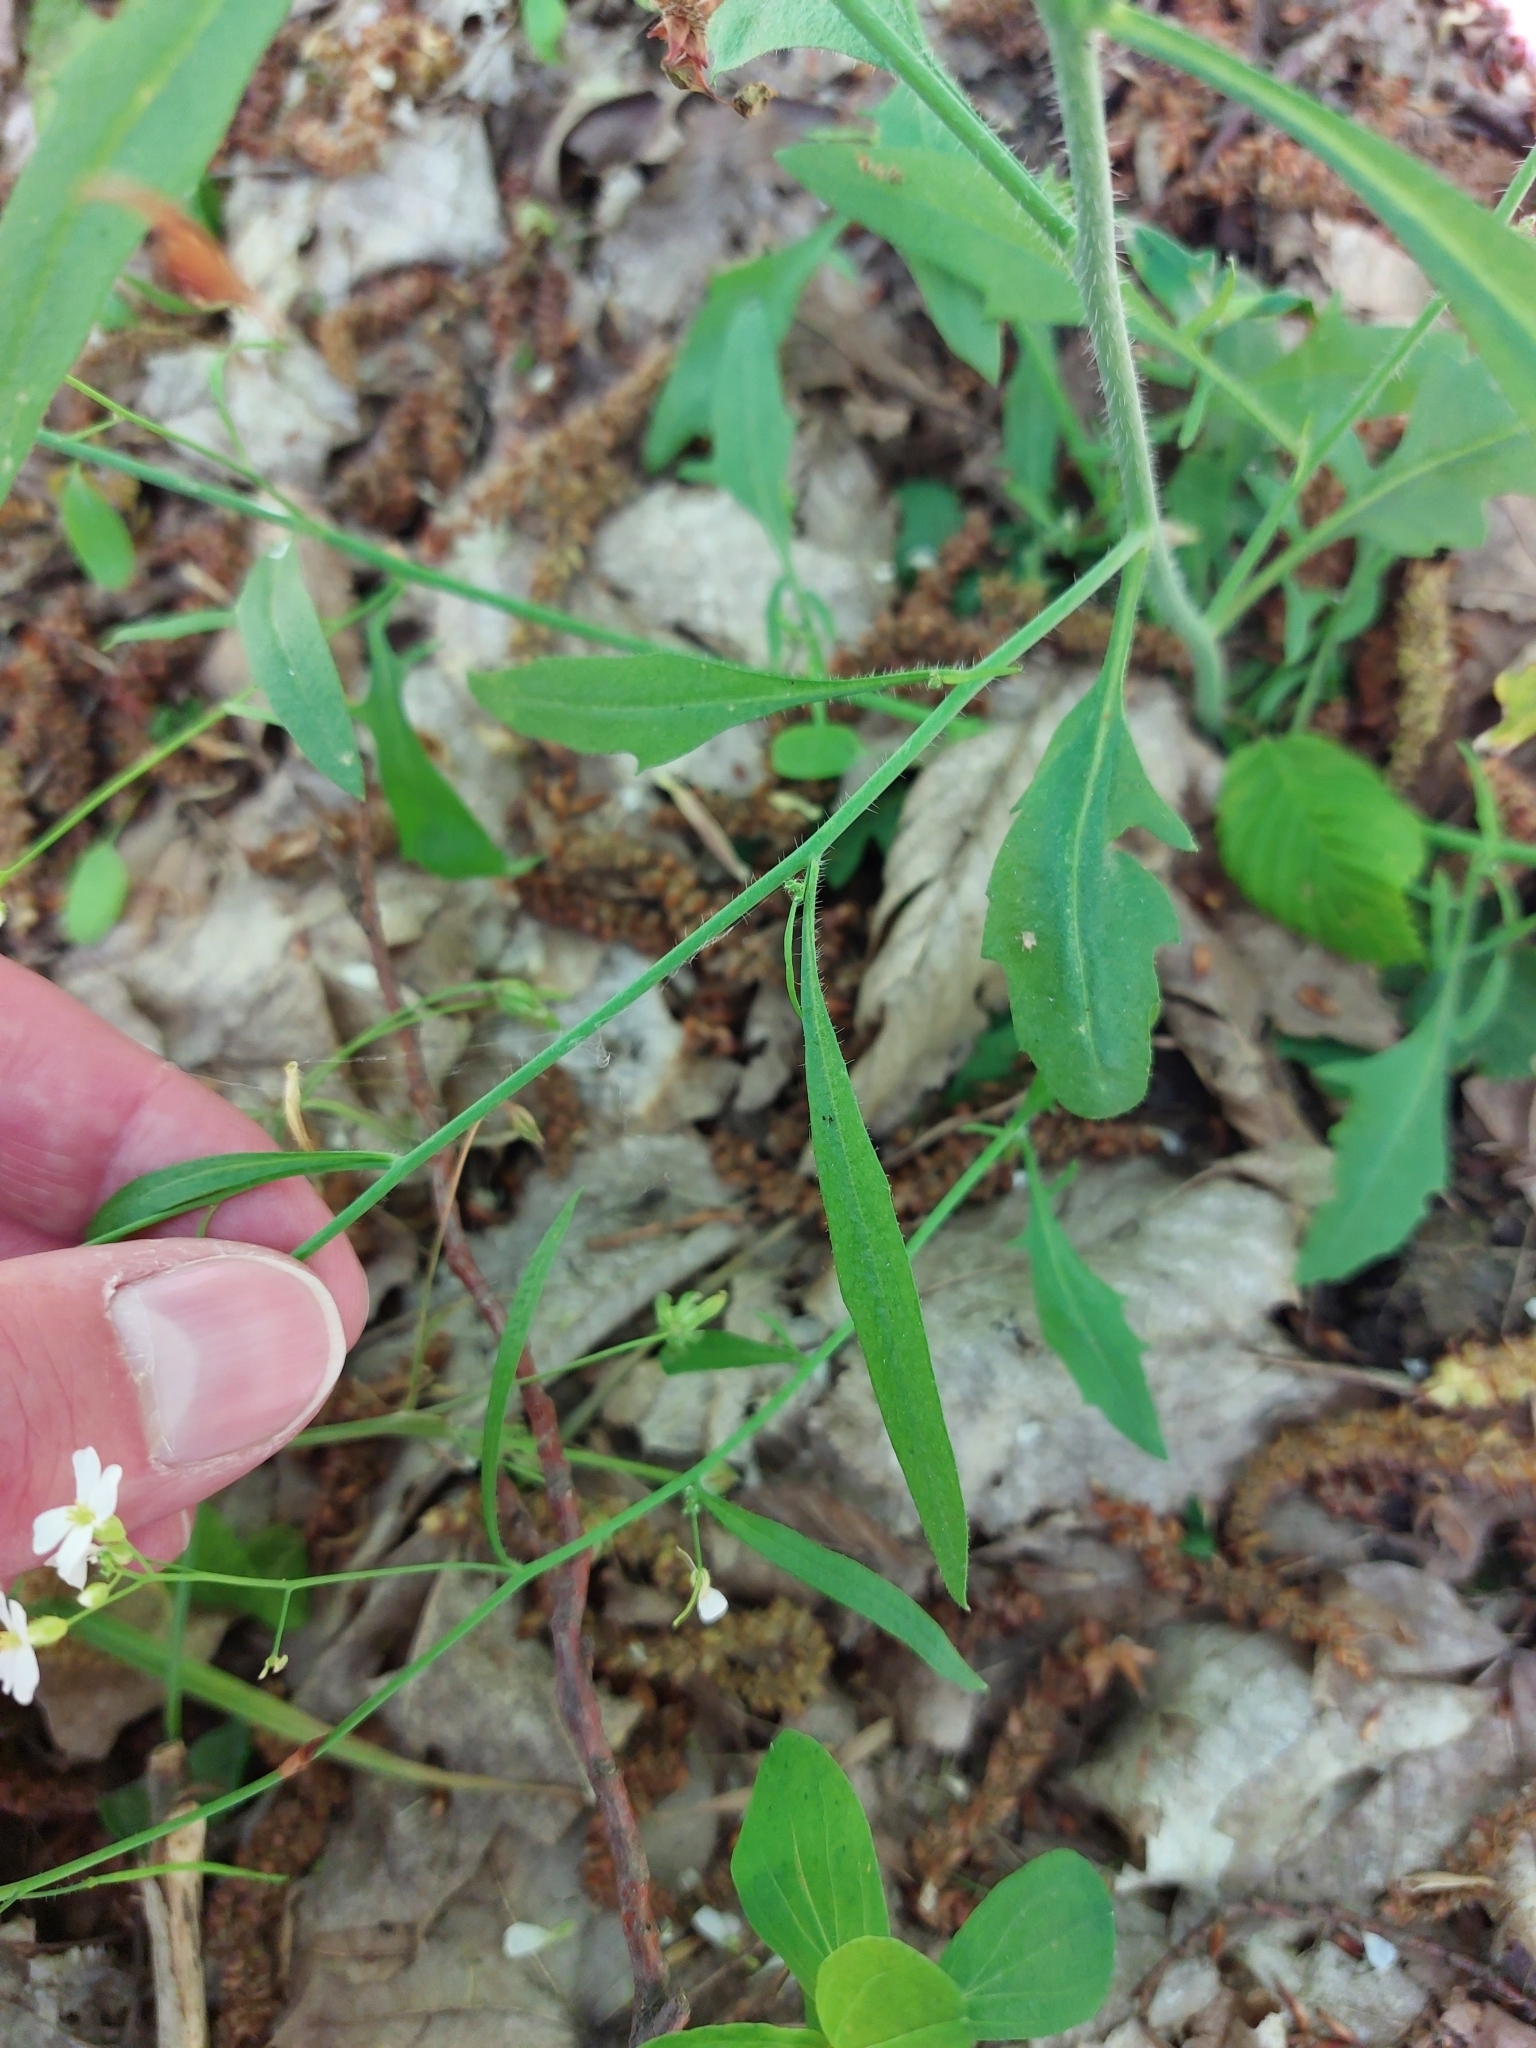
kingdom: Plantae
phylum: Tracheophyta
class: Magnoliopsida
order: Brassicales
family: Brassicaceae
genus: Arabidopsis
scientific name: Arabidopsis arenosa
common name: Sand rock-cress
